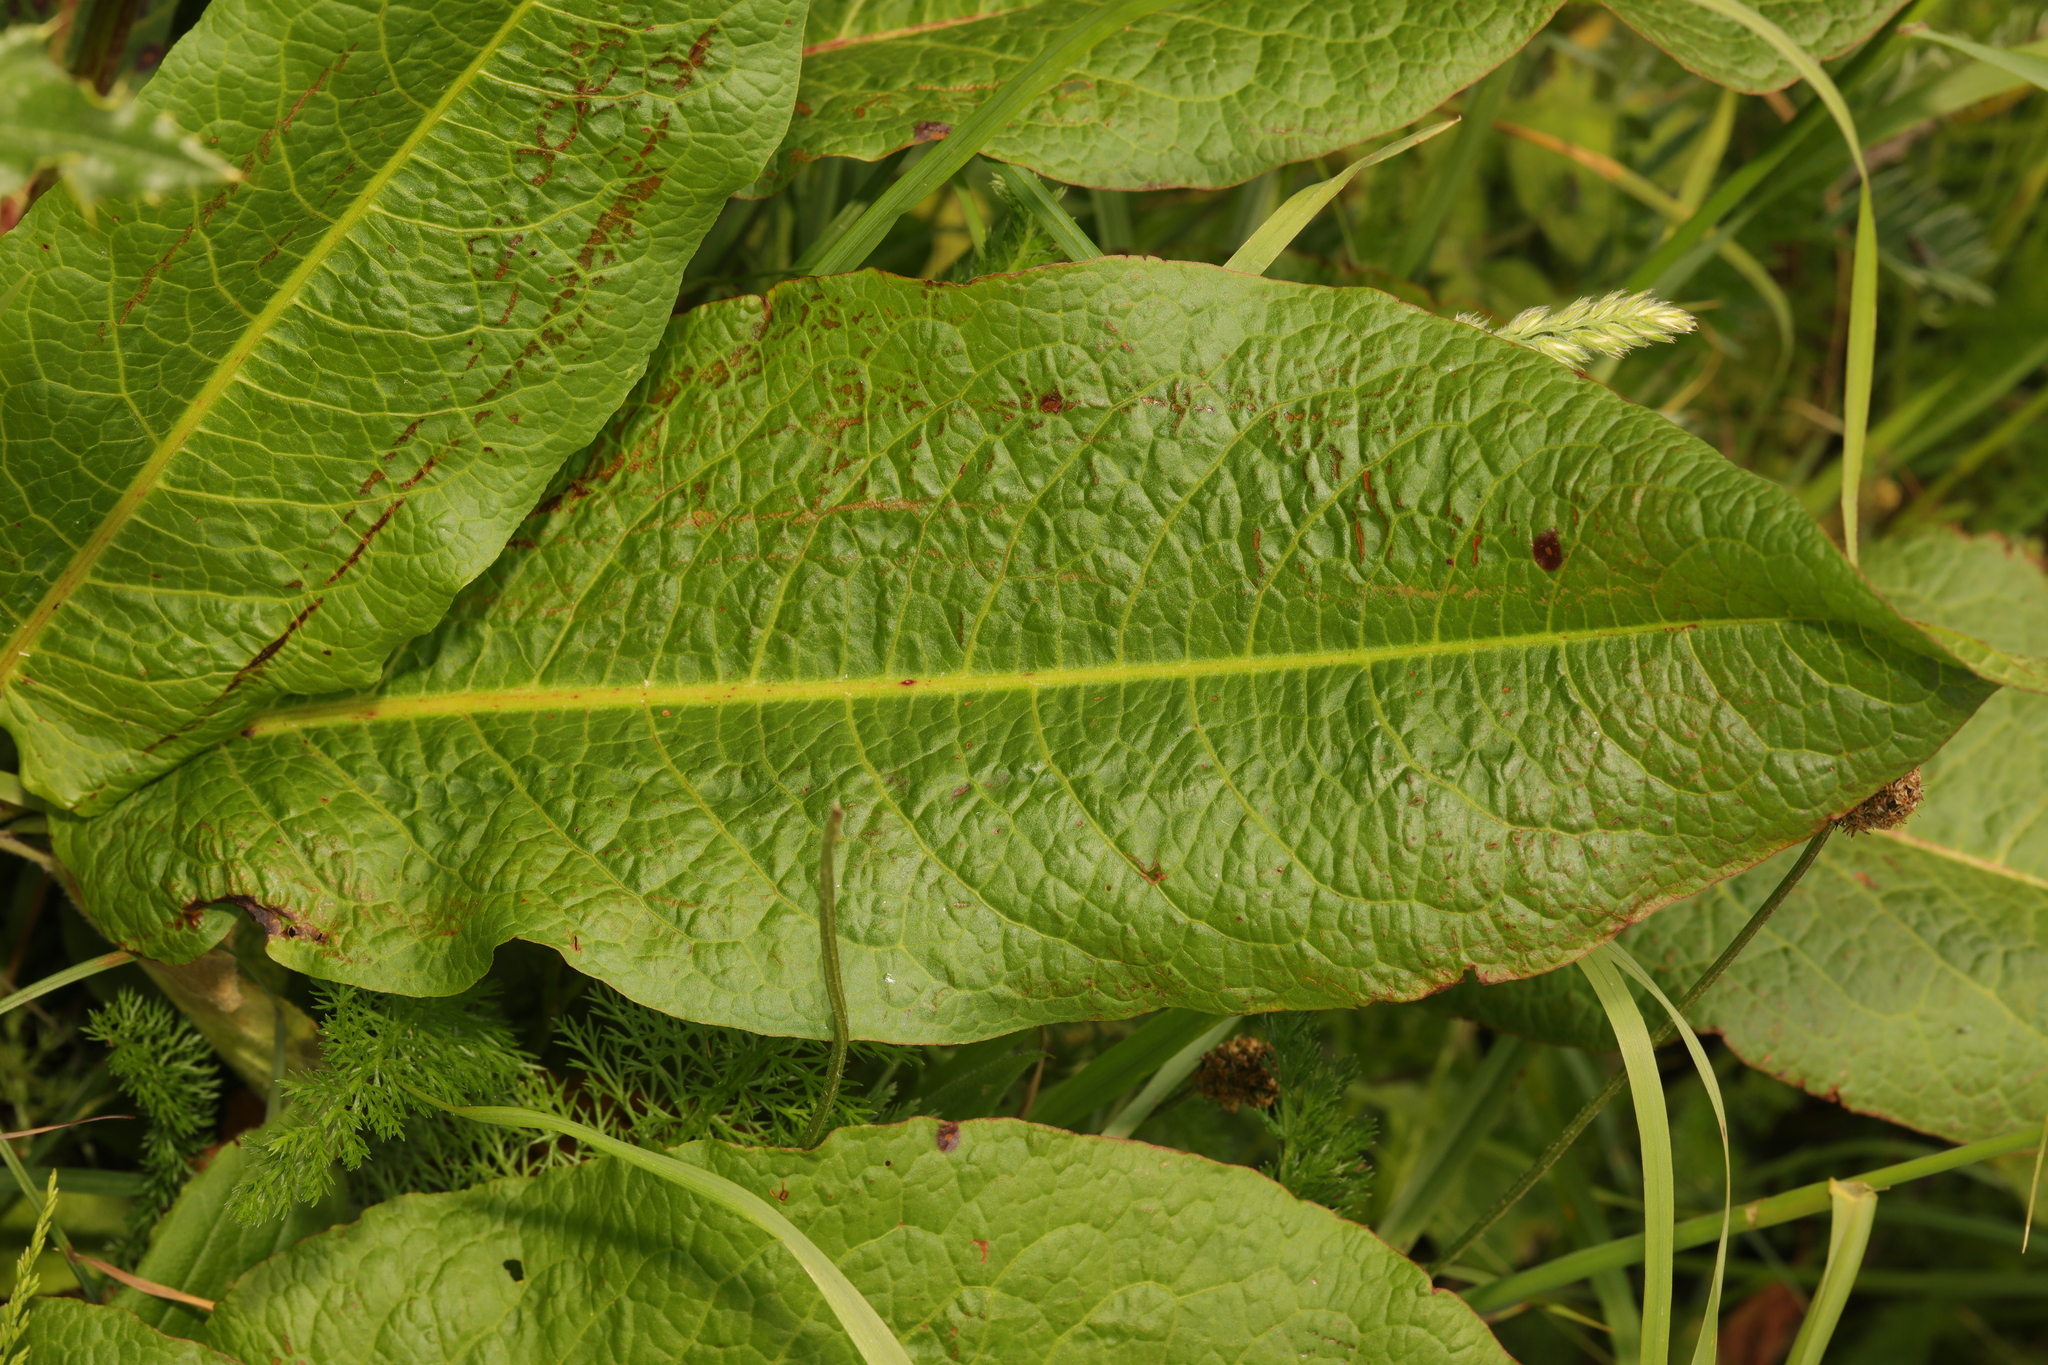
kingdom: Plantae
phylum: Tracheophyta
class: Magnoliopsida
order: Caryophyllales
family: Polygonaceae
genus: Rumex
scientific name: Rumex obtusifolius
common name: Bitter dock
